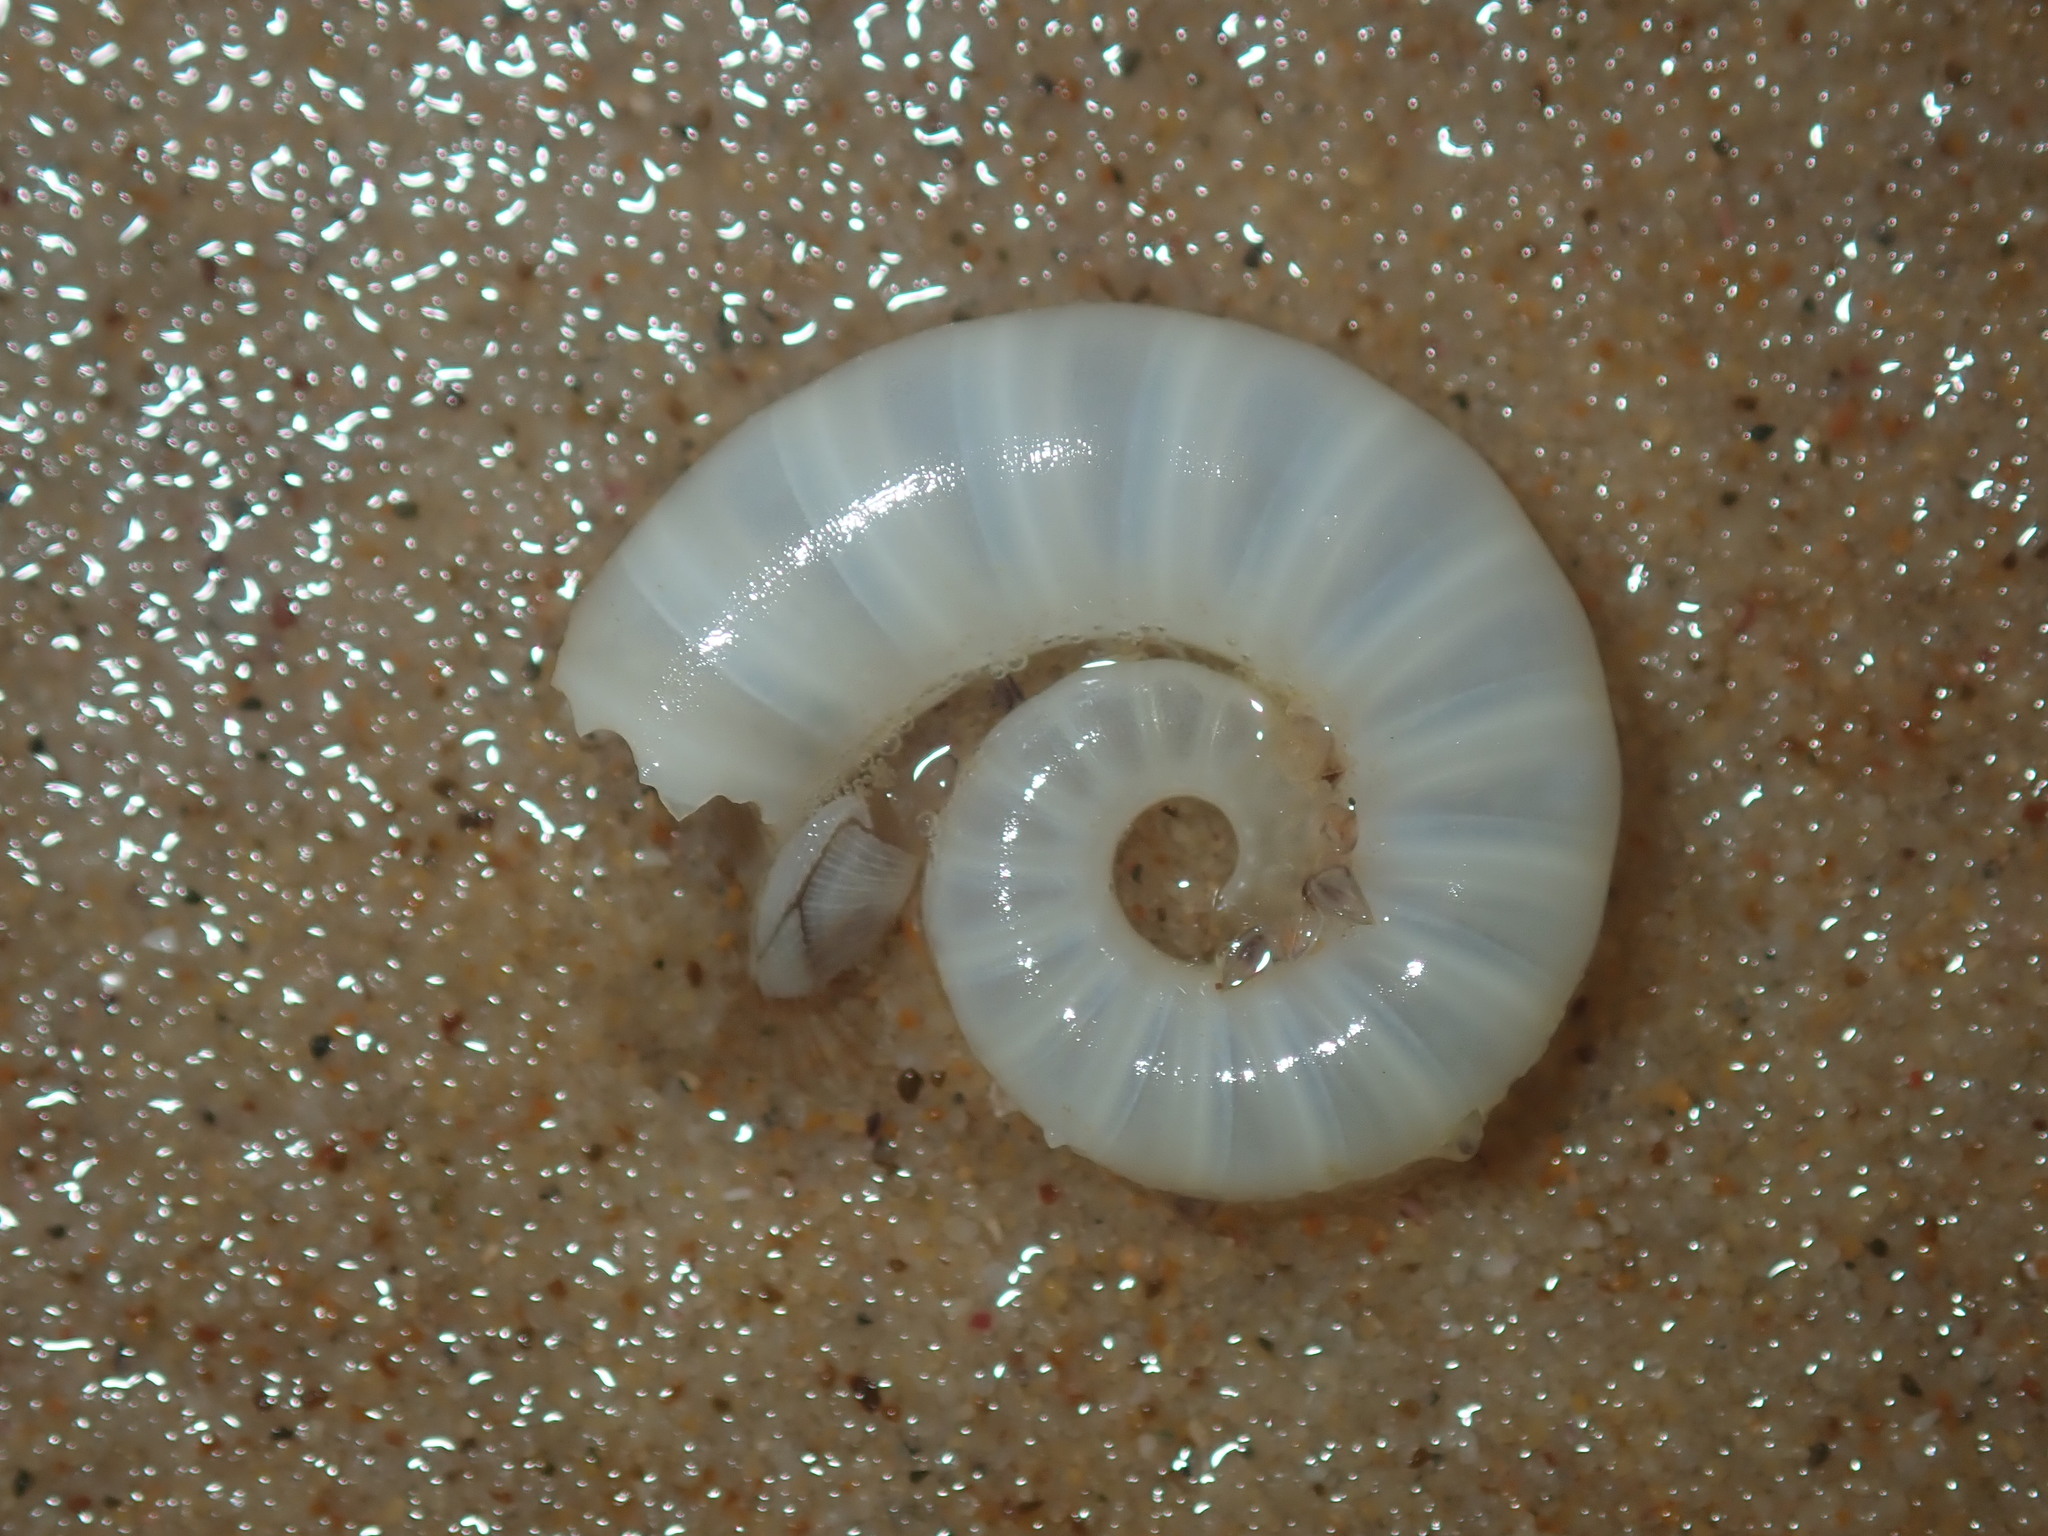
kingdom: Animalia
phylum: Mollusca
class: Cephalopoda
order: Spirulida
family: Spirulidae
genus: Spirula
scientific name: Spirula spirula
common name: Ram's horn squid
